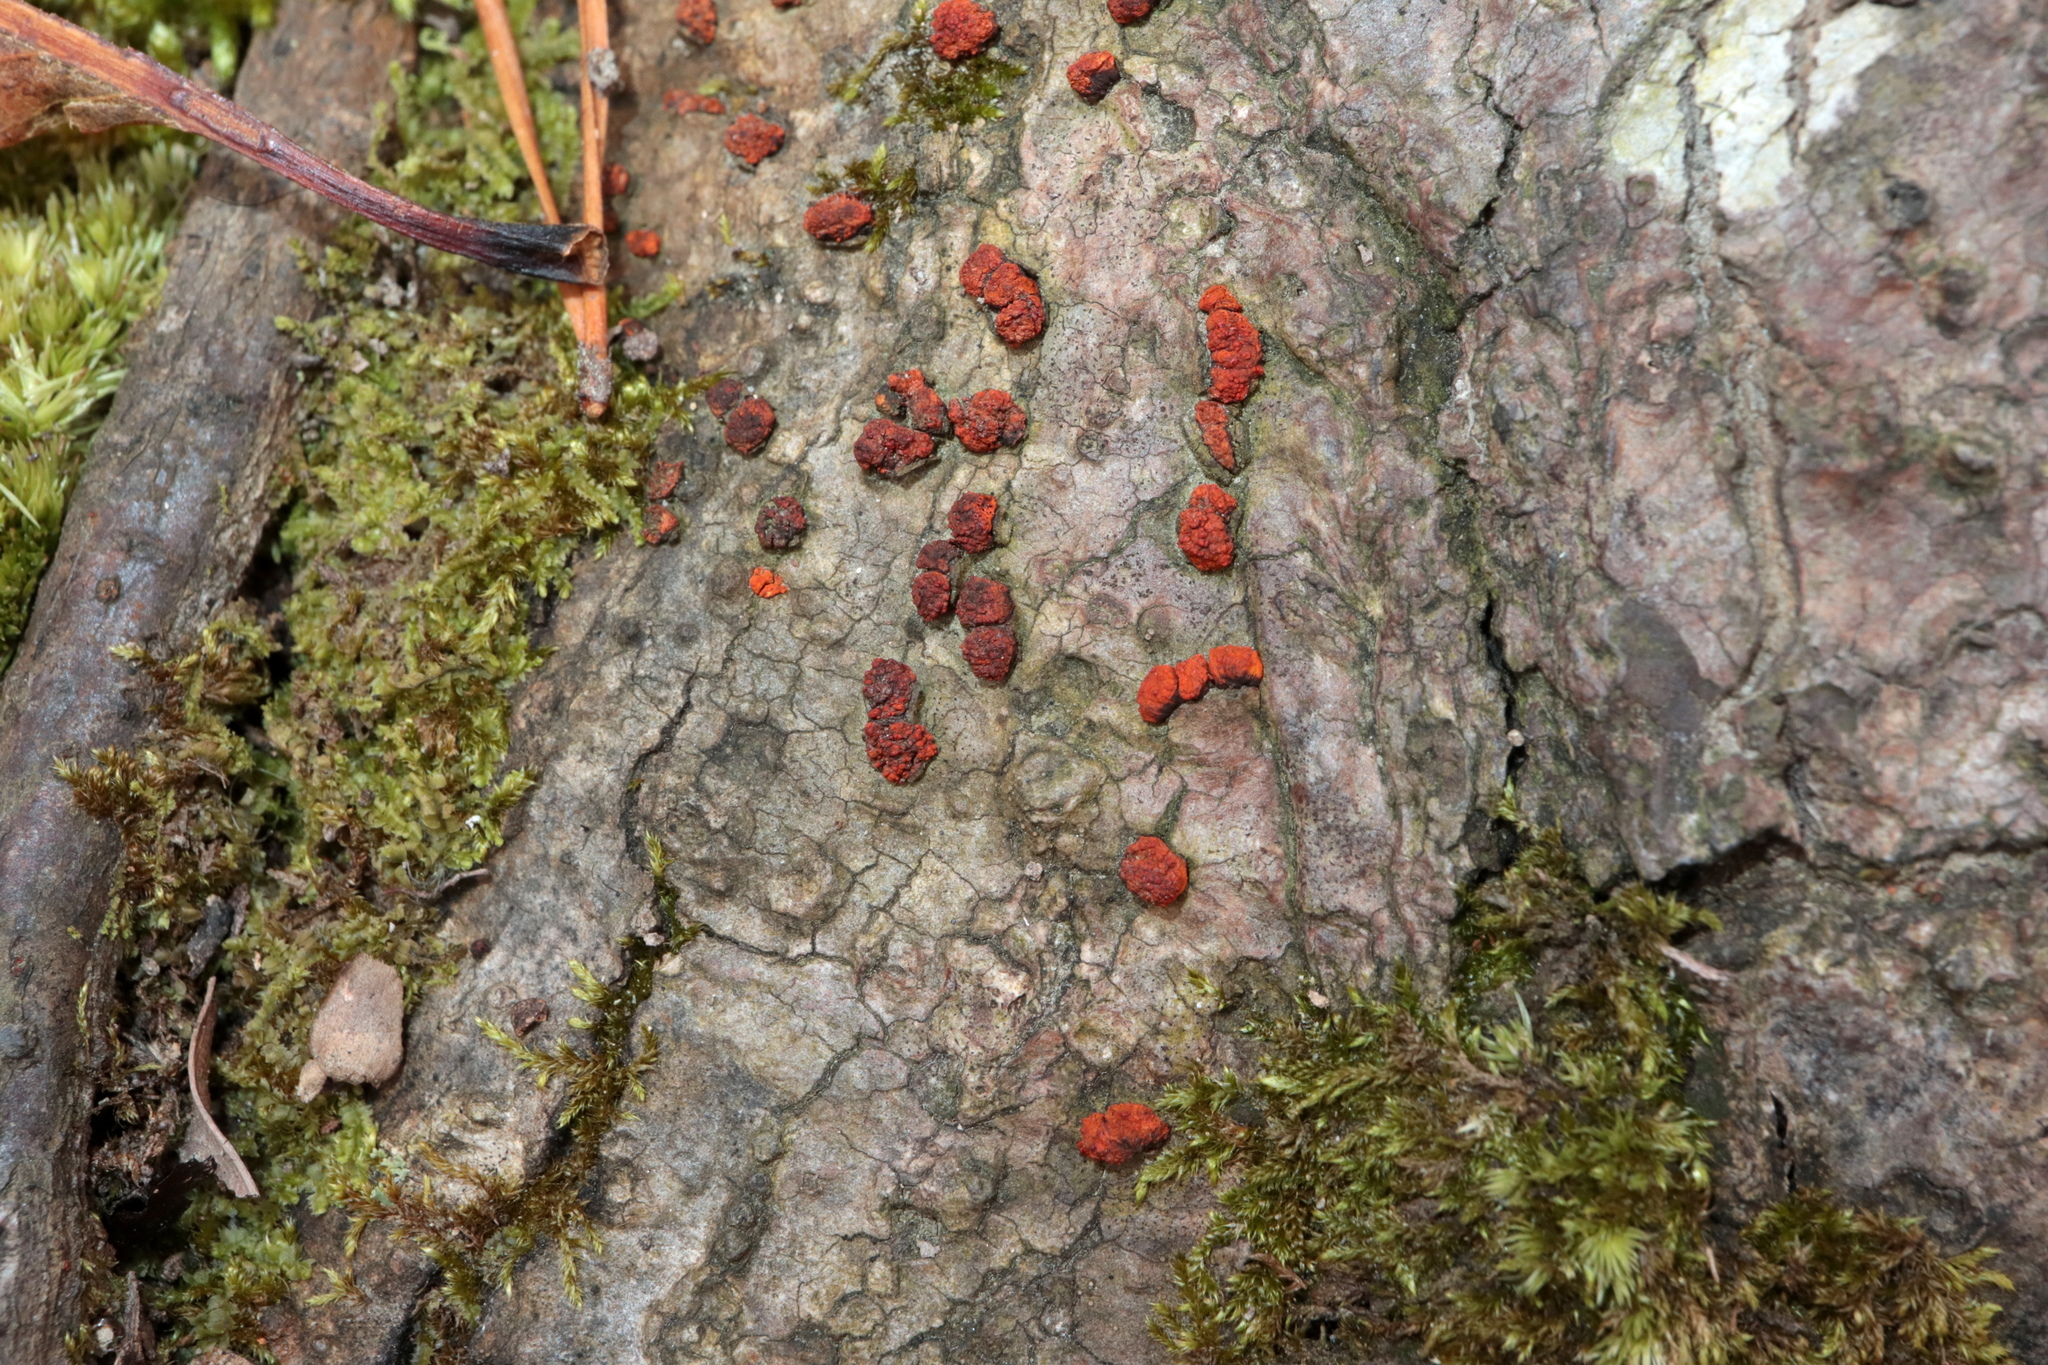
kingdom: Fungi
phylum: Ascomycota
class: Sordariomycetes
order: Diaporthales
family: Cryphonectriaceae
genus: Amphilogia
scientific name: Amphilogia gyrosa
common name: Orange hobnail canker
